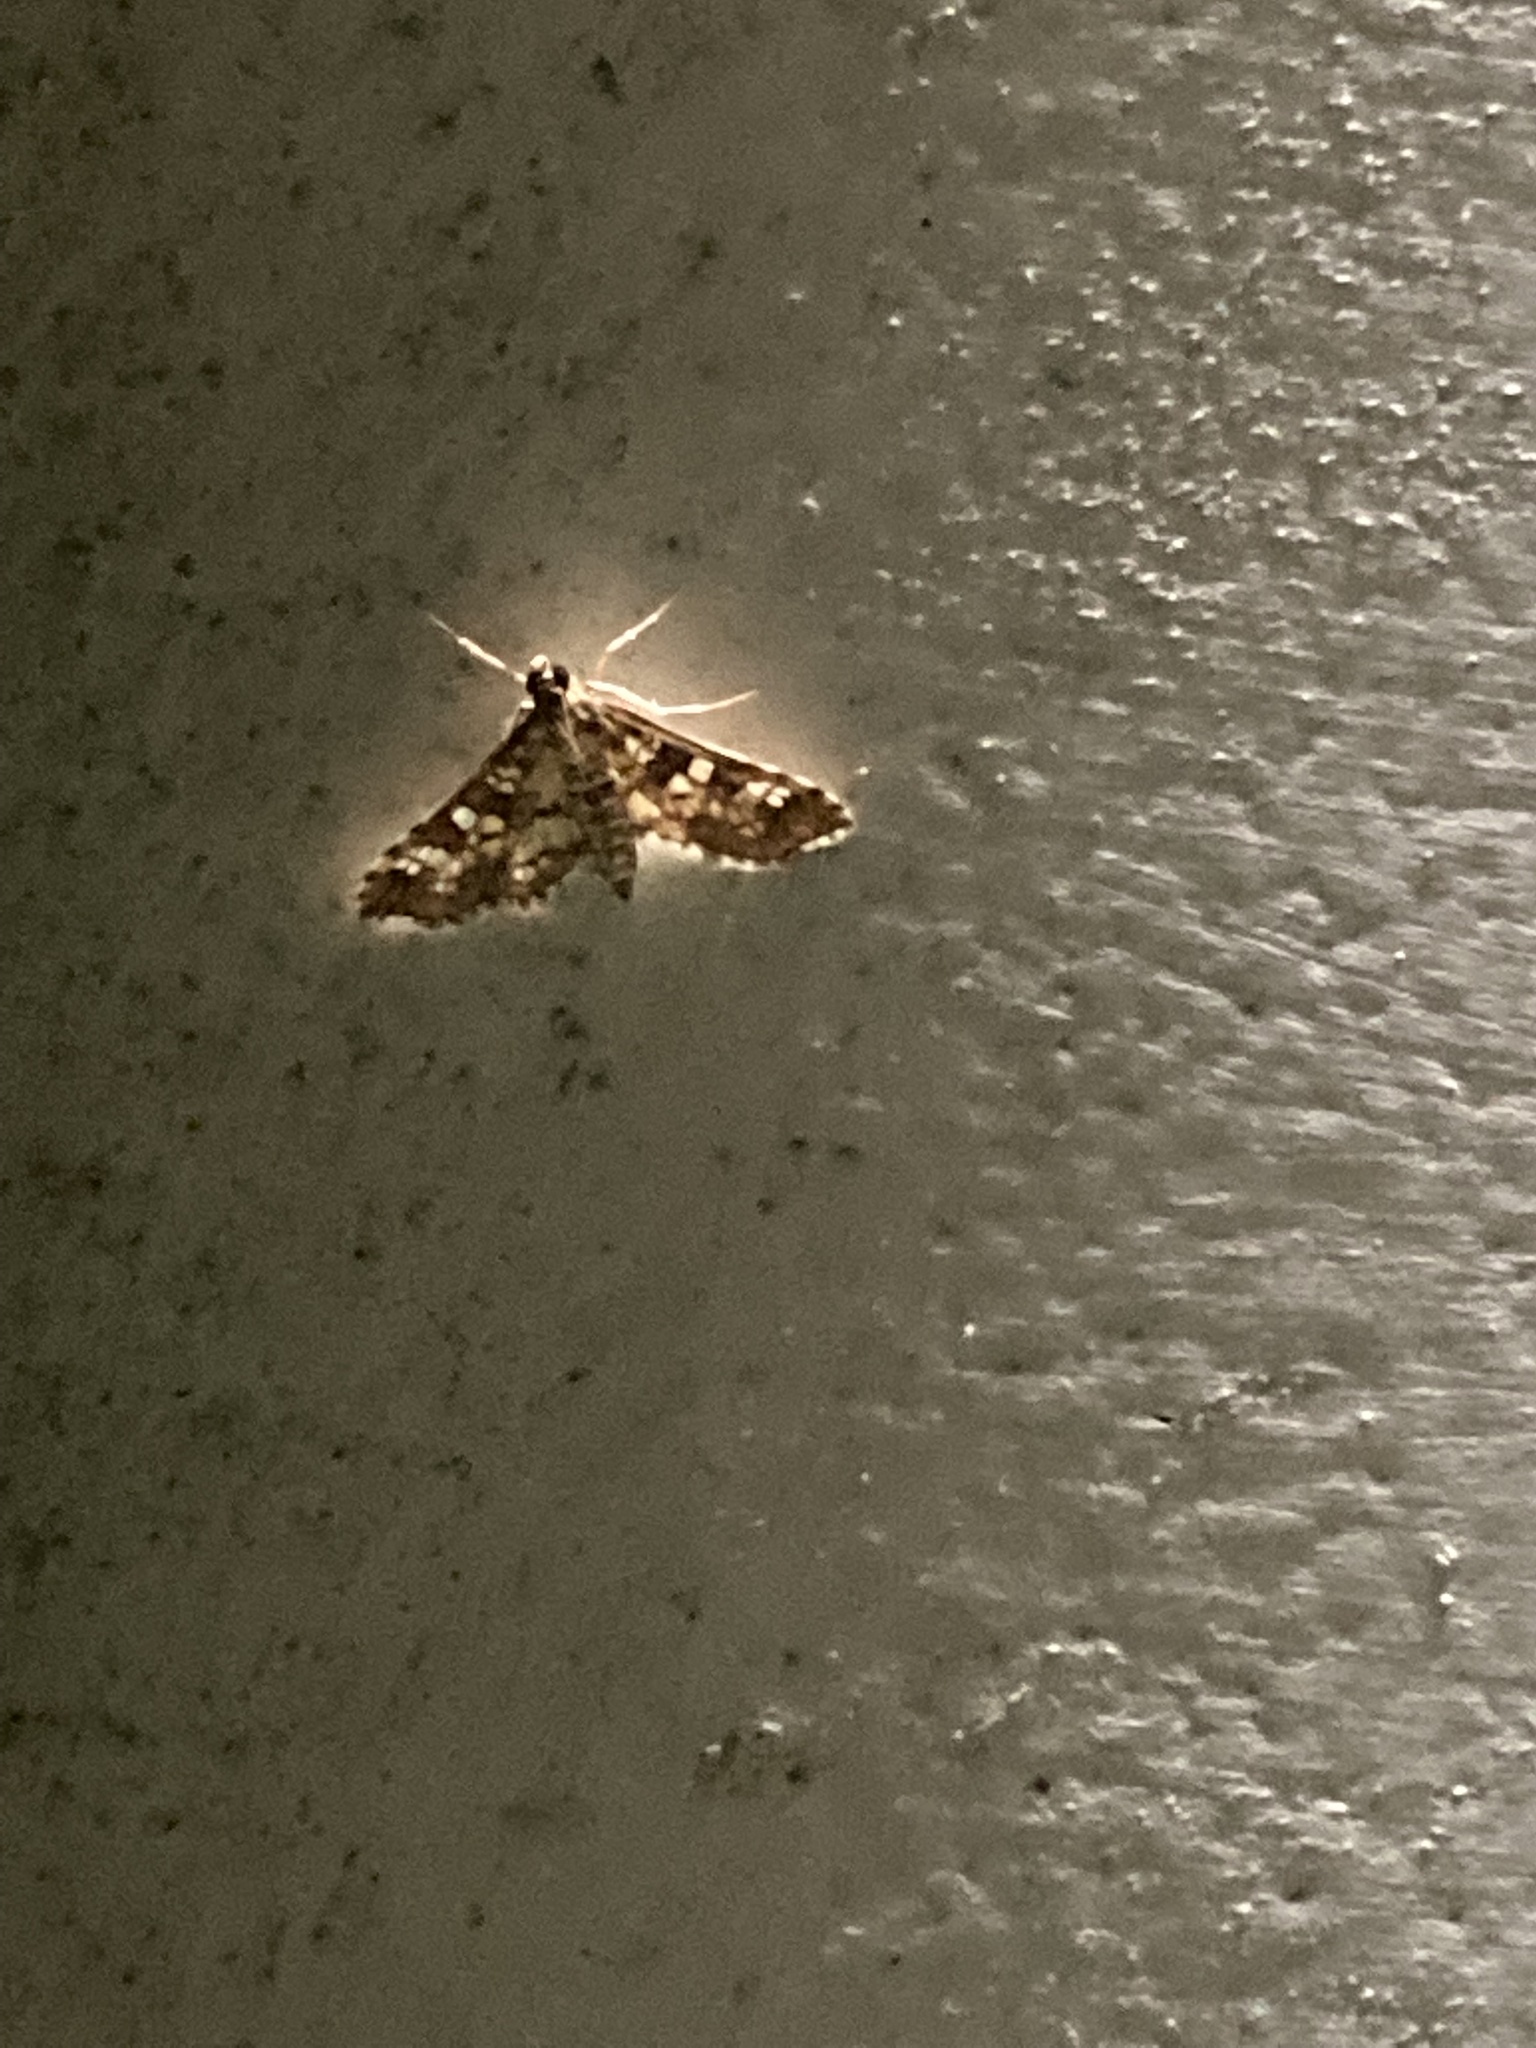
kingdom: Animalia
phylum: Arthropoda
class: Insecta
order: Lepidoptera
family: Crambidae
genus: Samea
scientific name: Samea ecclesialis
